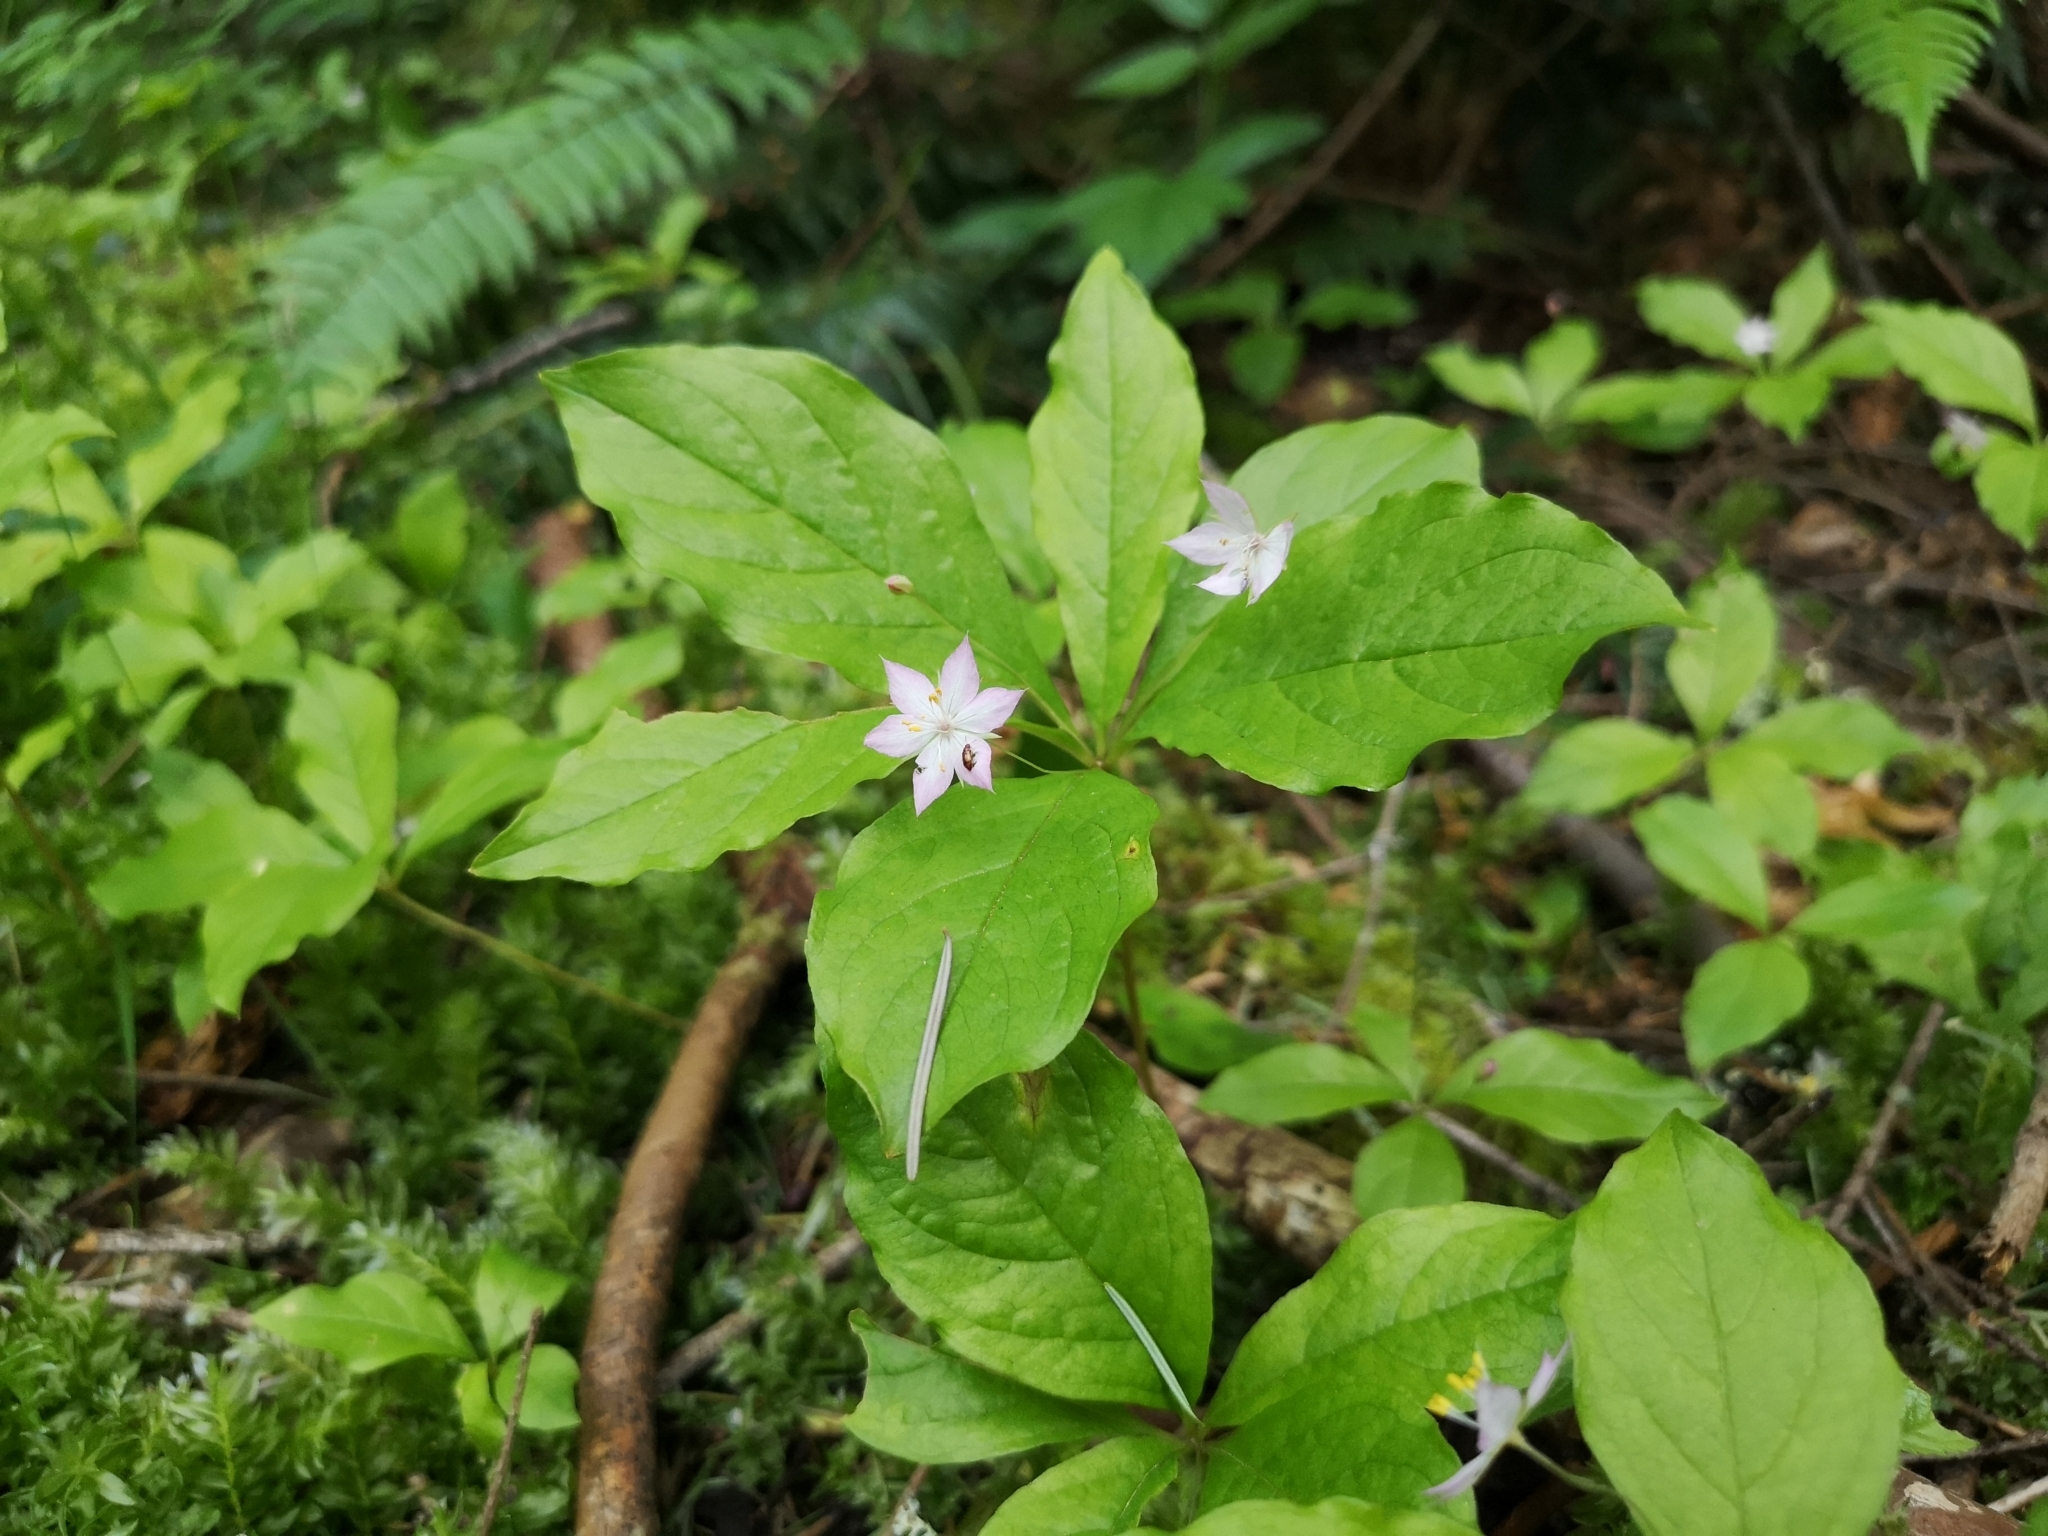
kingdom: Plantae
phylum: Tracheophyta
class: Magnoliopsida
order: Ericales
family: Primulaceae
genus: Lysimachia
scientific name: Lysimachia latifolia
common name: Pacific starflower
